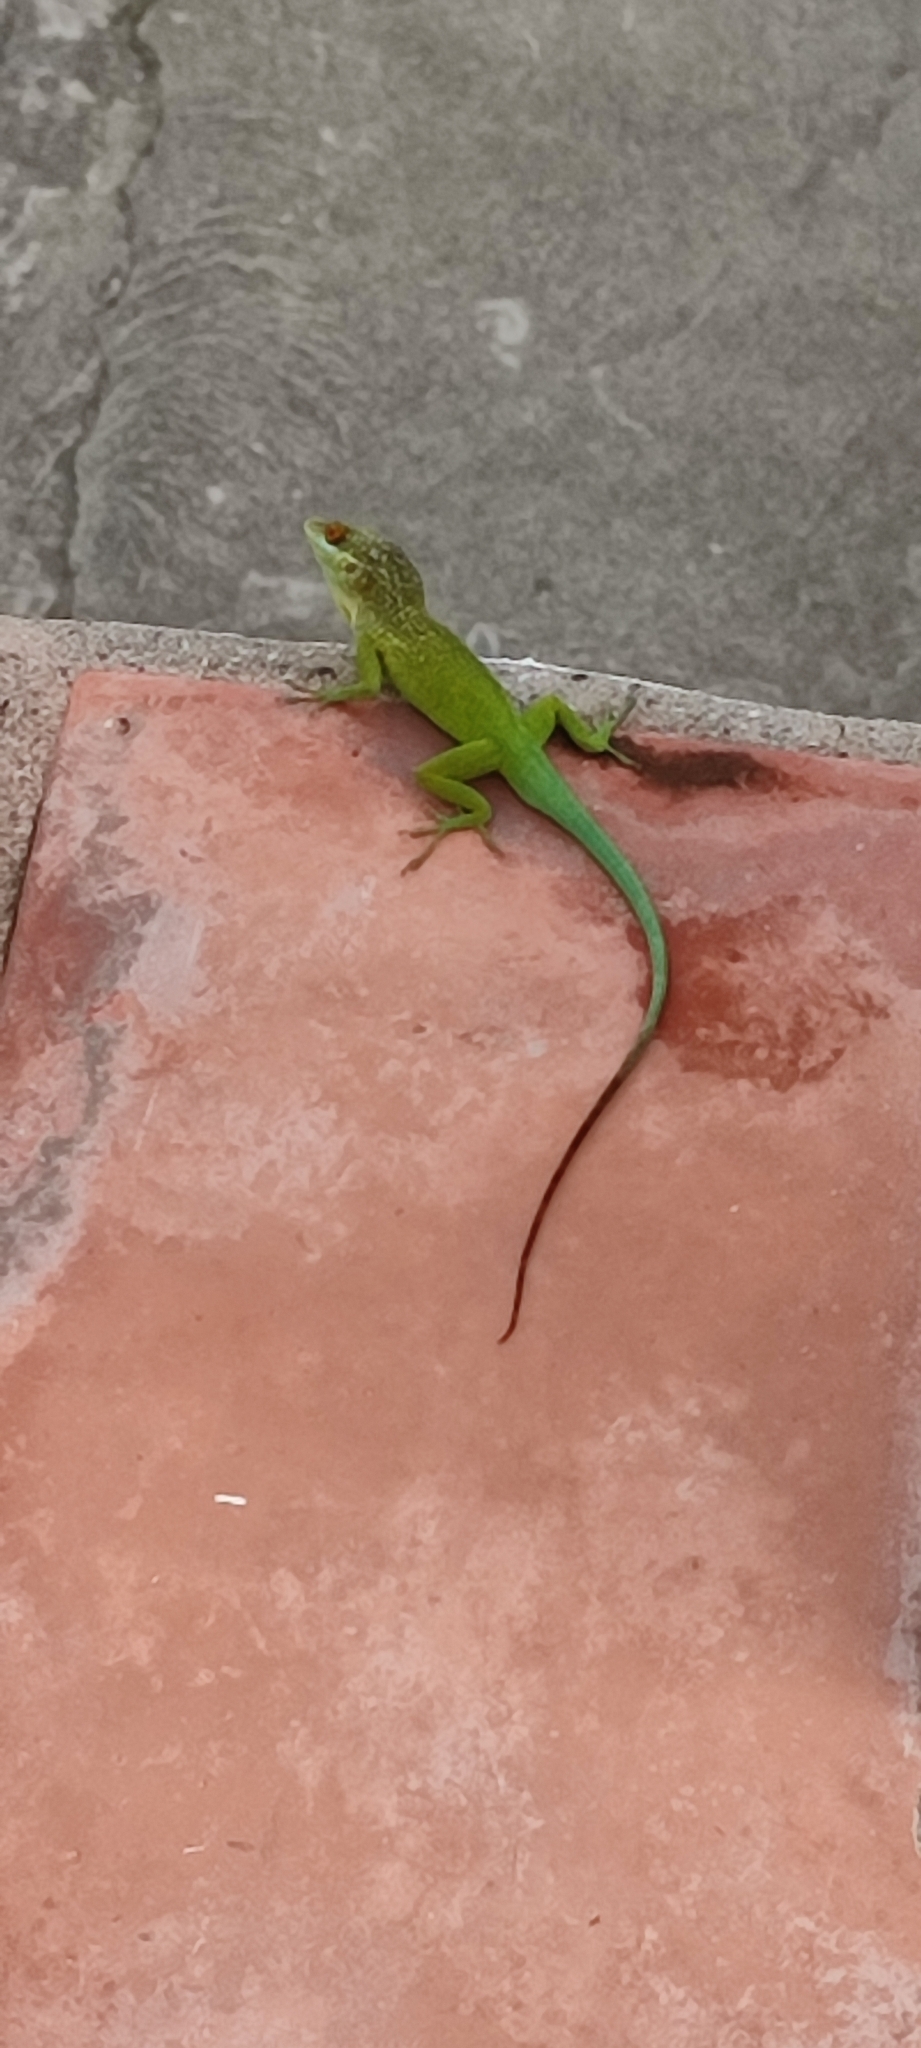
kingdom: Animalia
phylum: Chordata
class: Squamata
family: Dactyloidae
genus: Anolis
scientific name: Anolis lividus
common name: Montserrat anole
